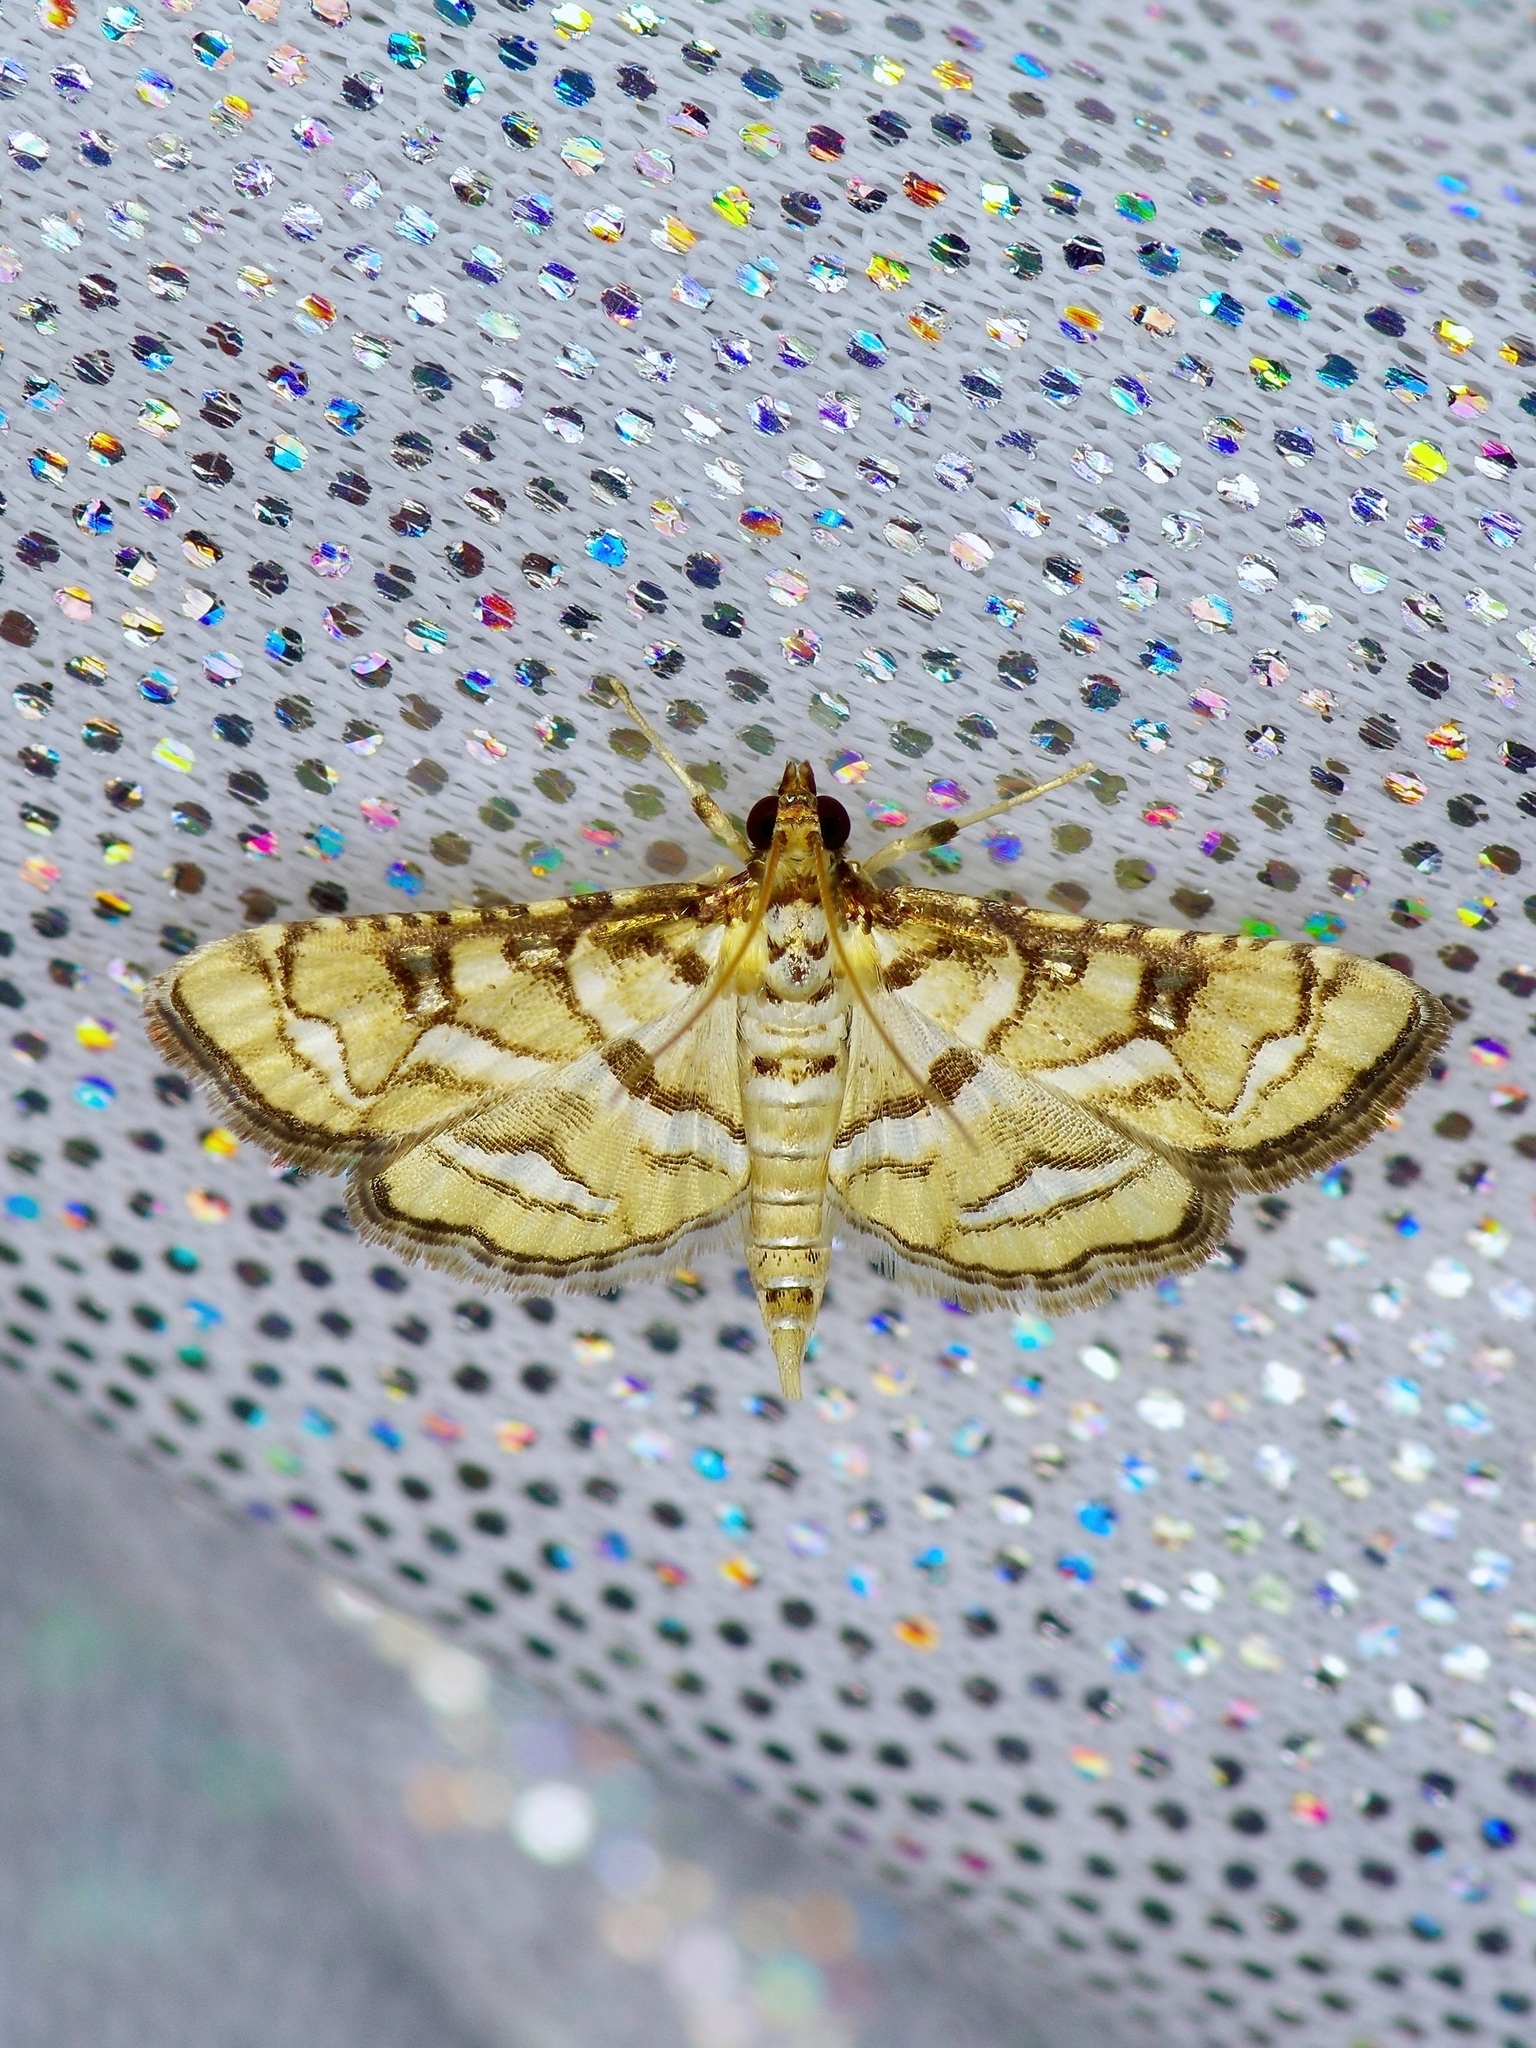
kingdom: Animalia
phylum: Arthropoda
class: Insecta
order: Lepidoptera
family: Crambidae
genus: Hileithia
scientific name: Hileithia magualis
